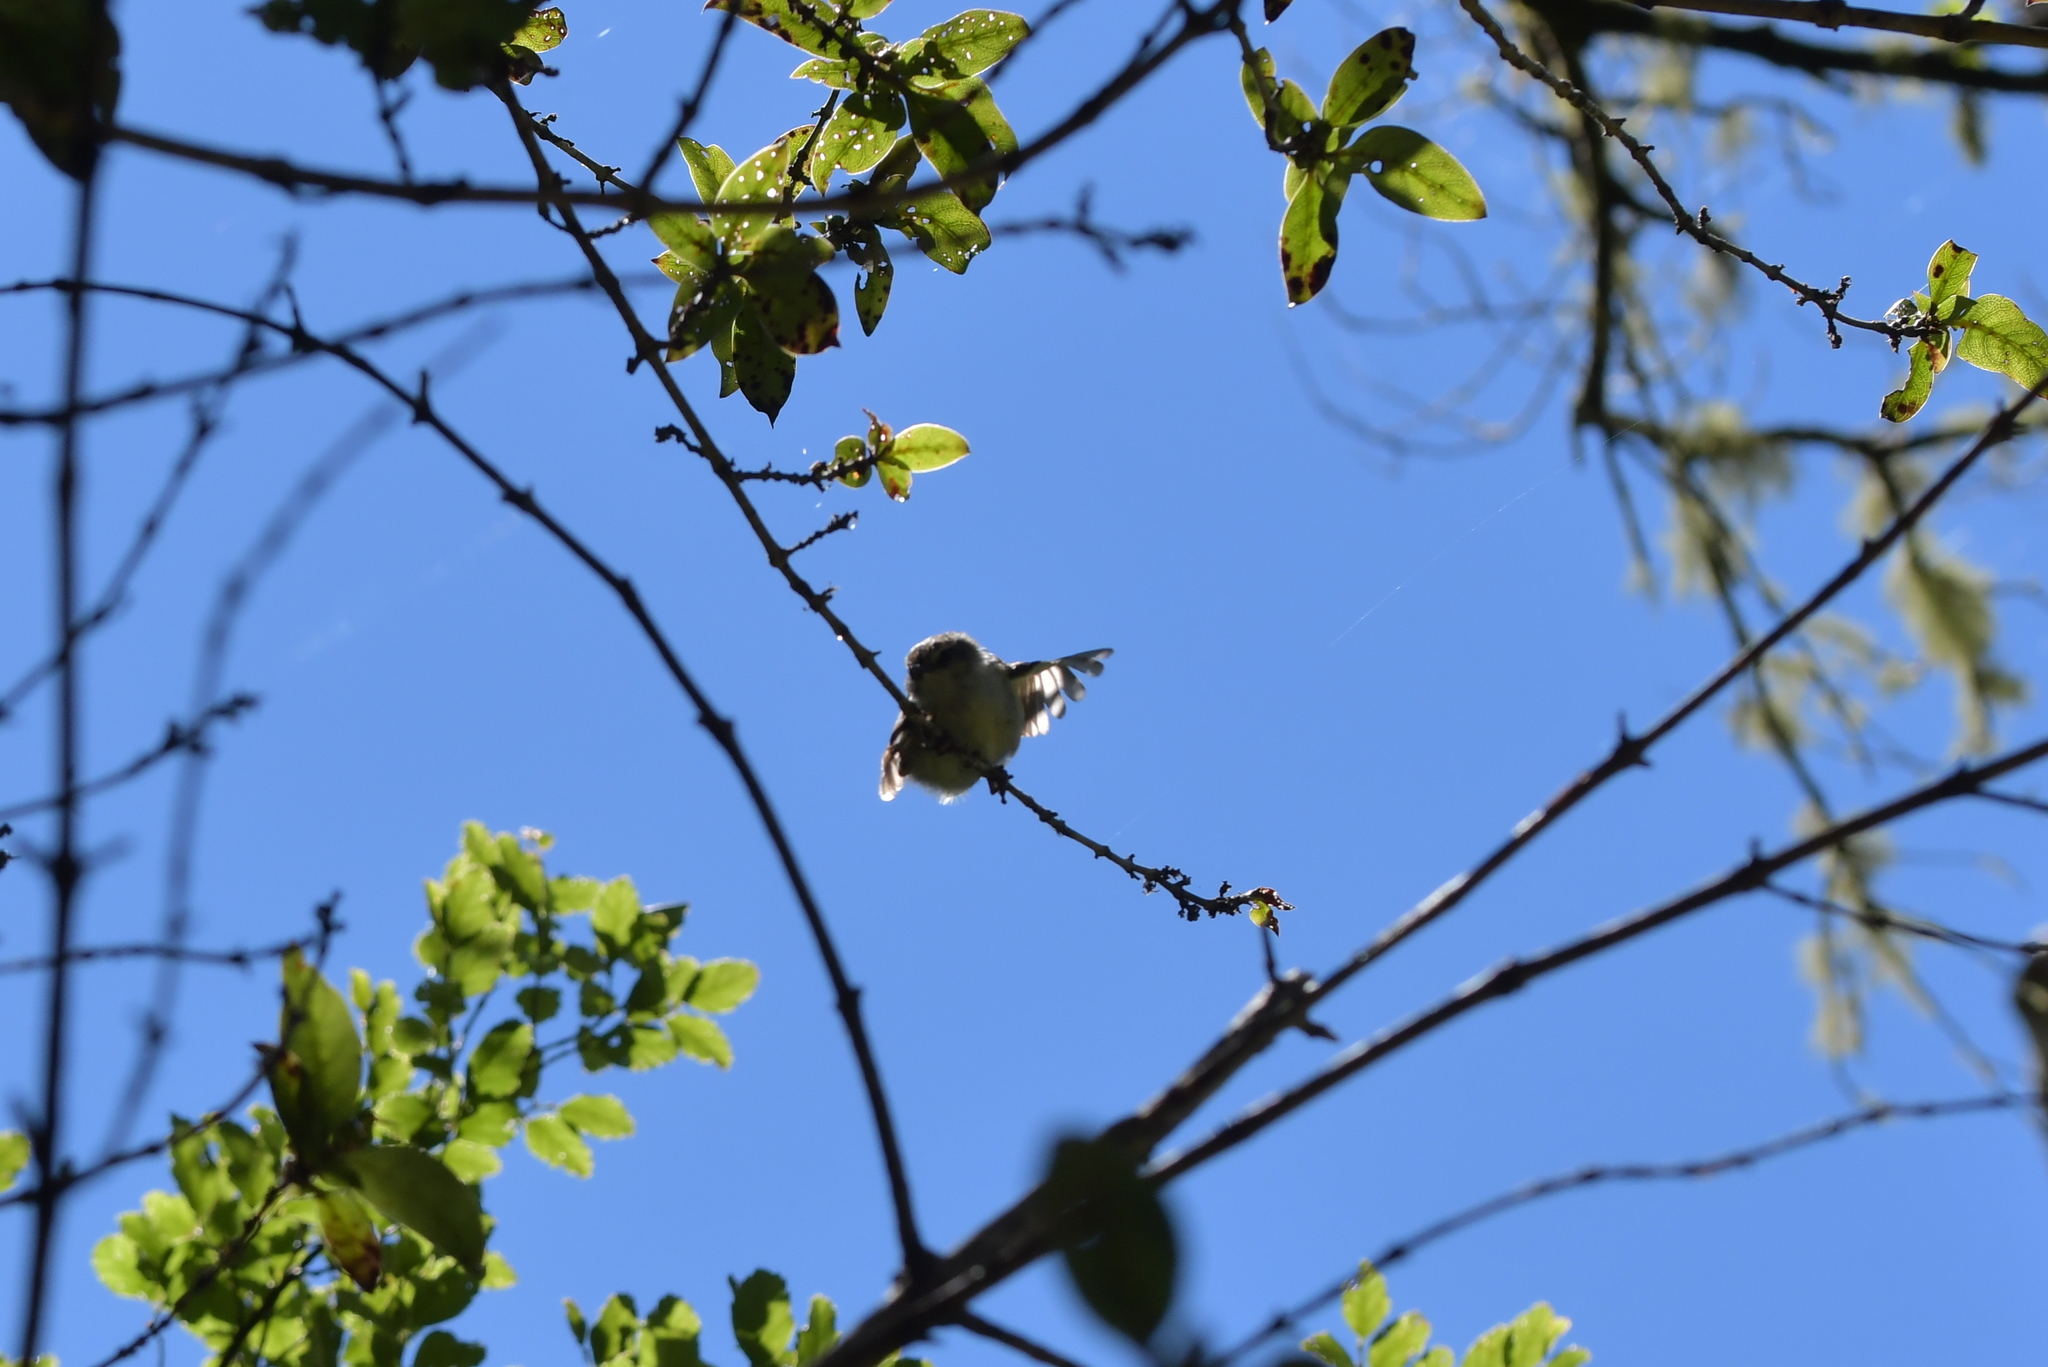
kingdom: Animalia
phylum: Chordata
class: Aves
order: Passeriformes
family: Acanthisittidae
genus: Acanthisitta
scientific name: Acanthisitta chloris
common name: Rifleman
